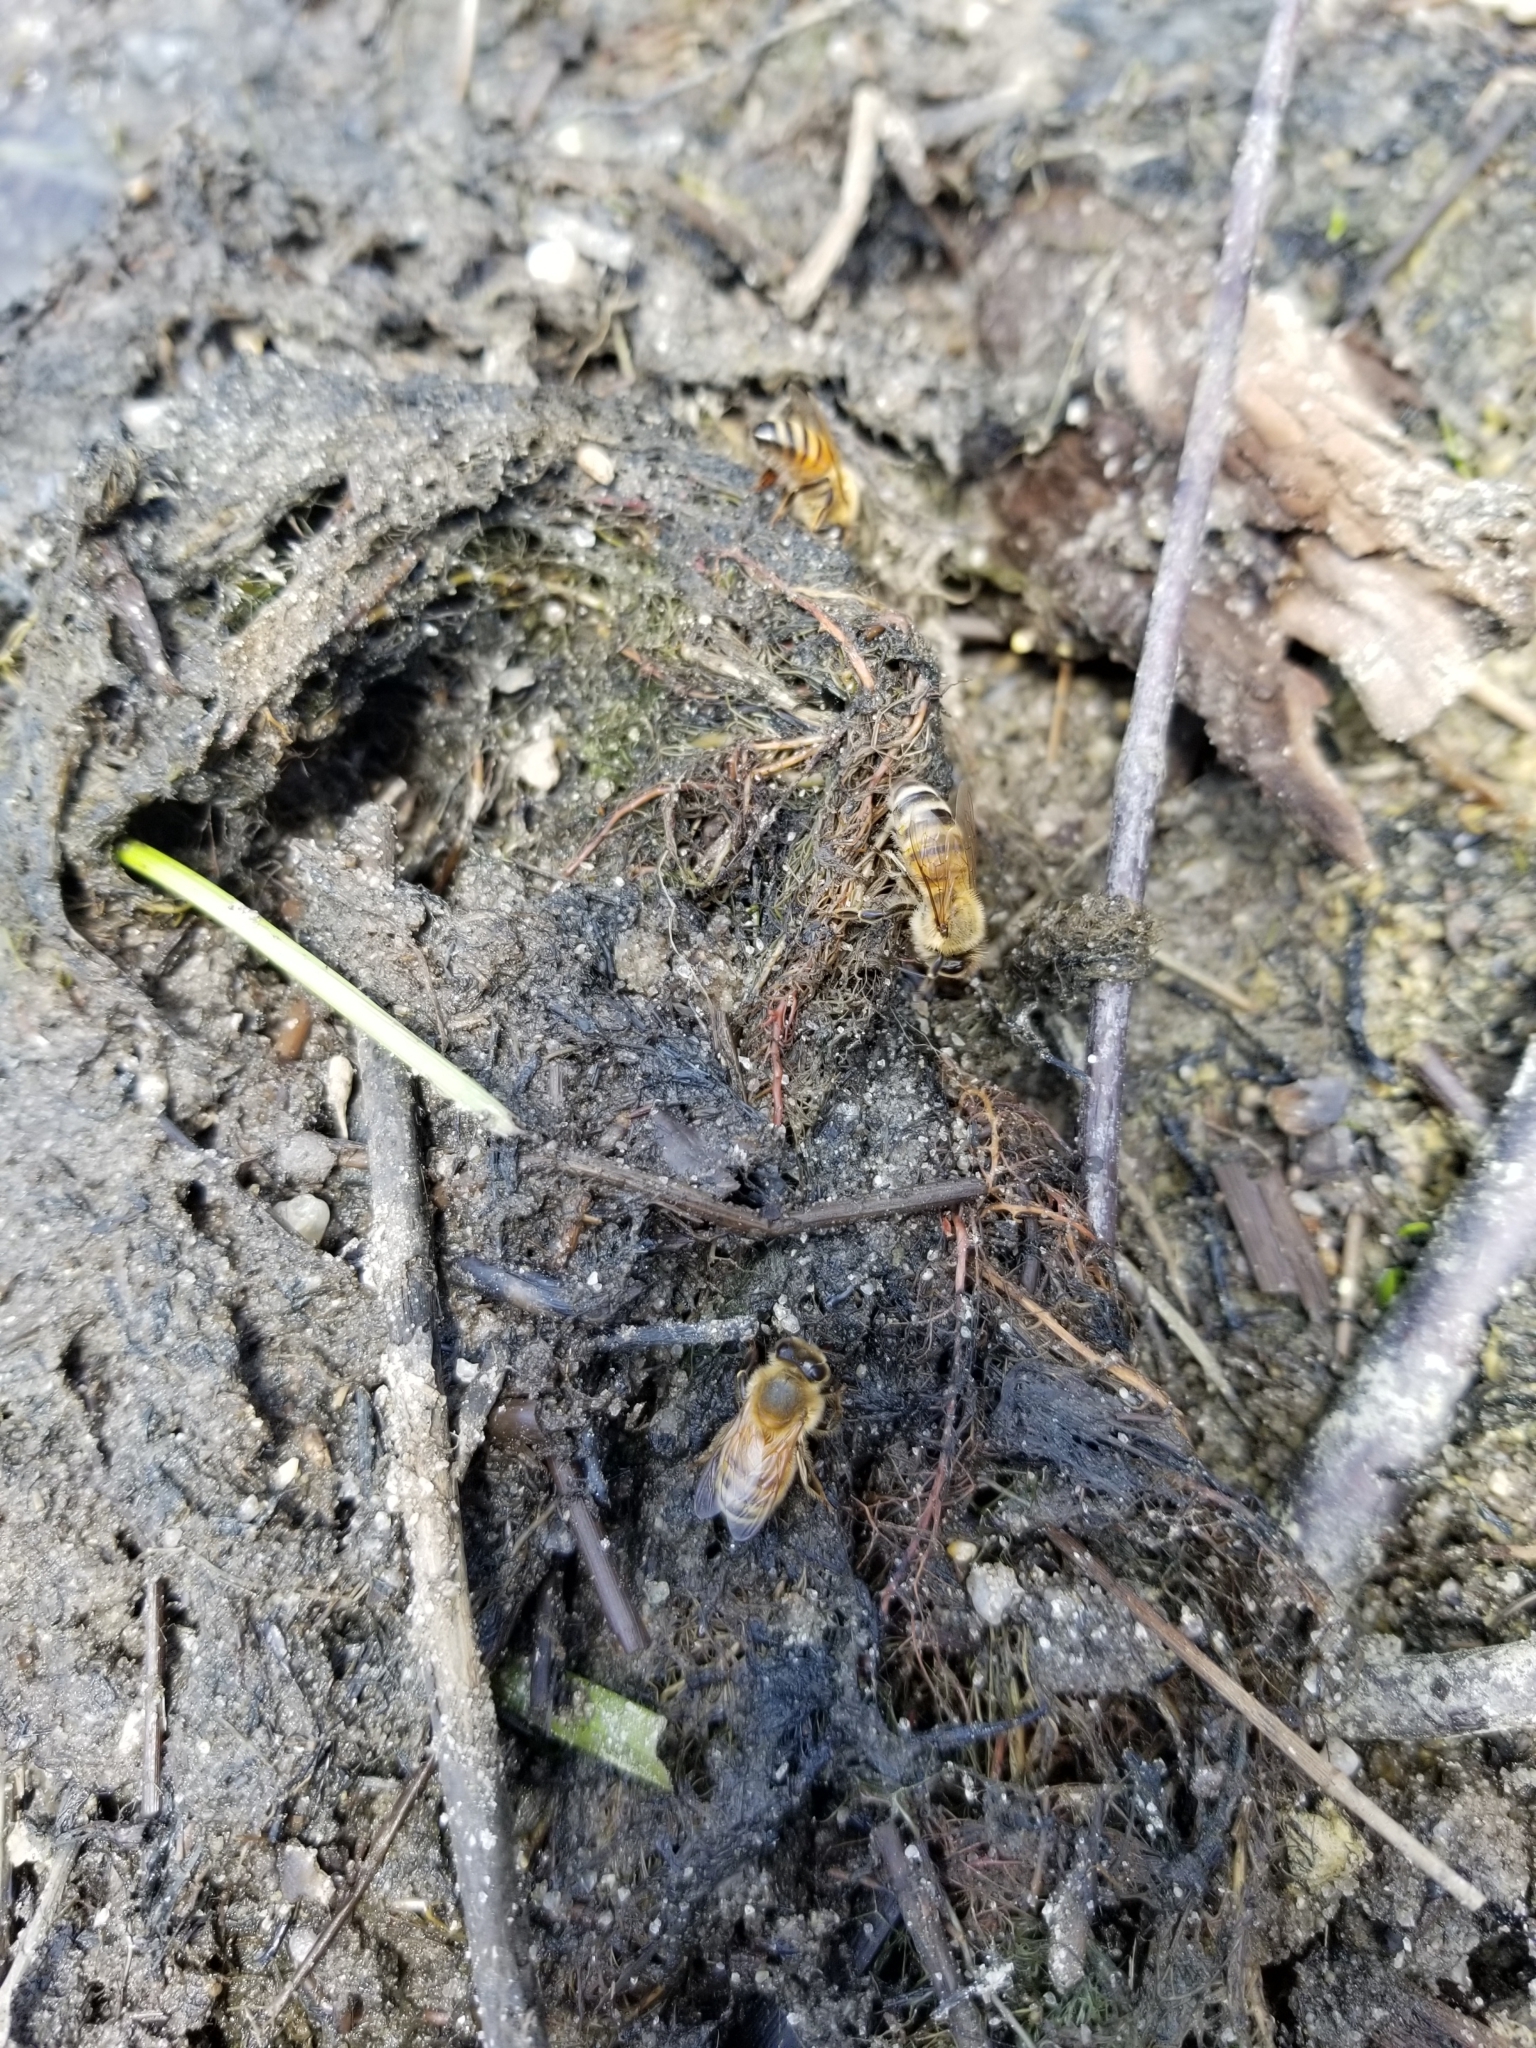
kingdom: Animalia
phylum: Arthropoda
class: Insecta
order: Hymenoptera
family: Apidae
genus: Apis
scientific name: Apis mellifera
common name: Honey bee
